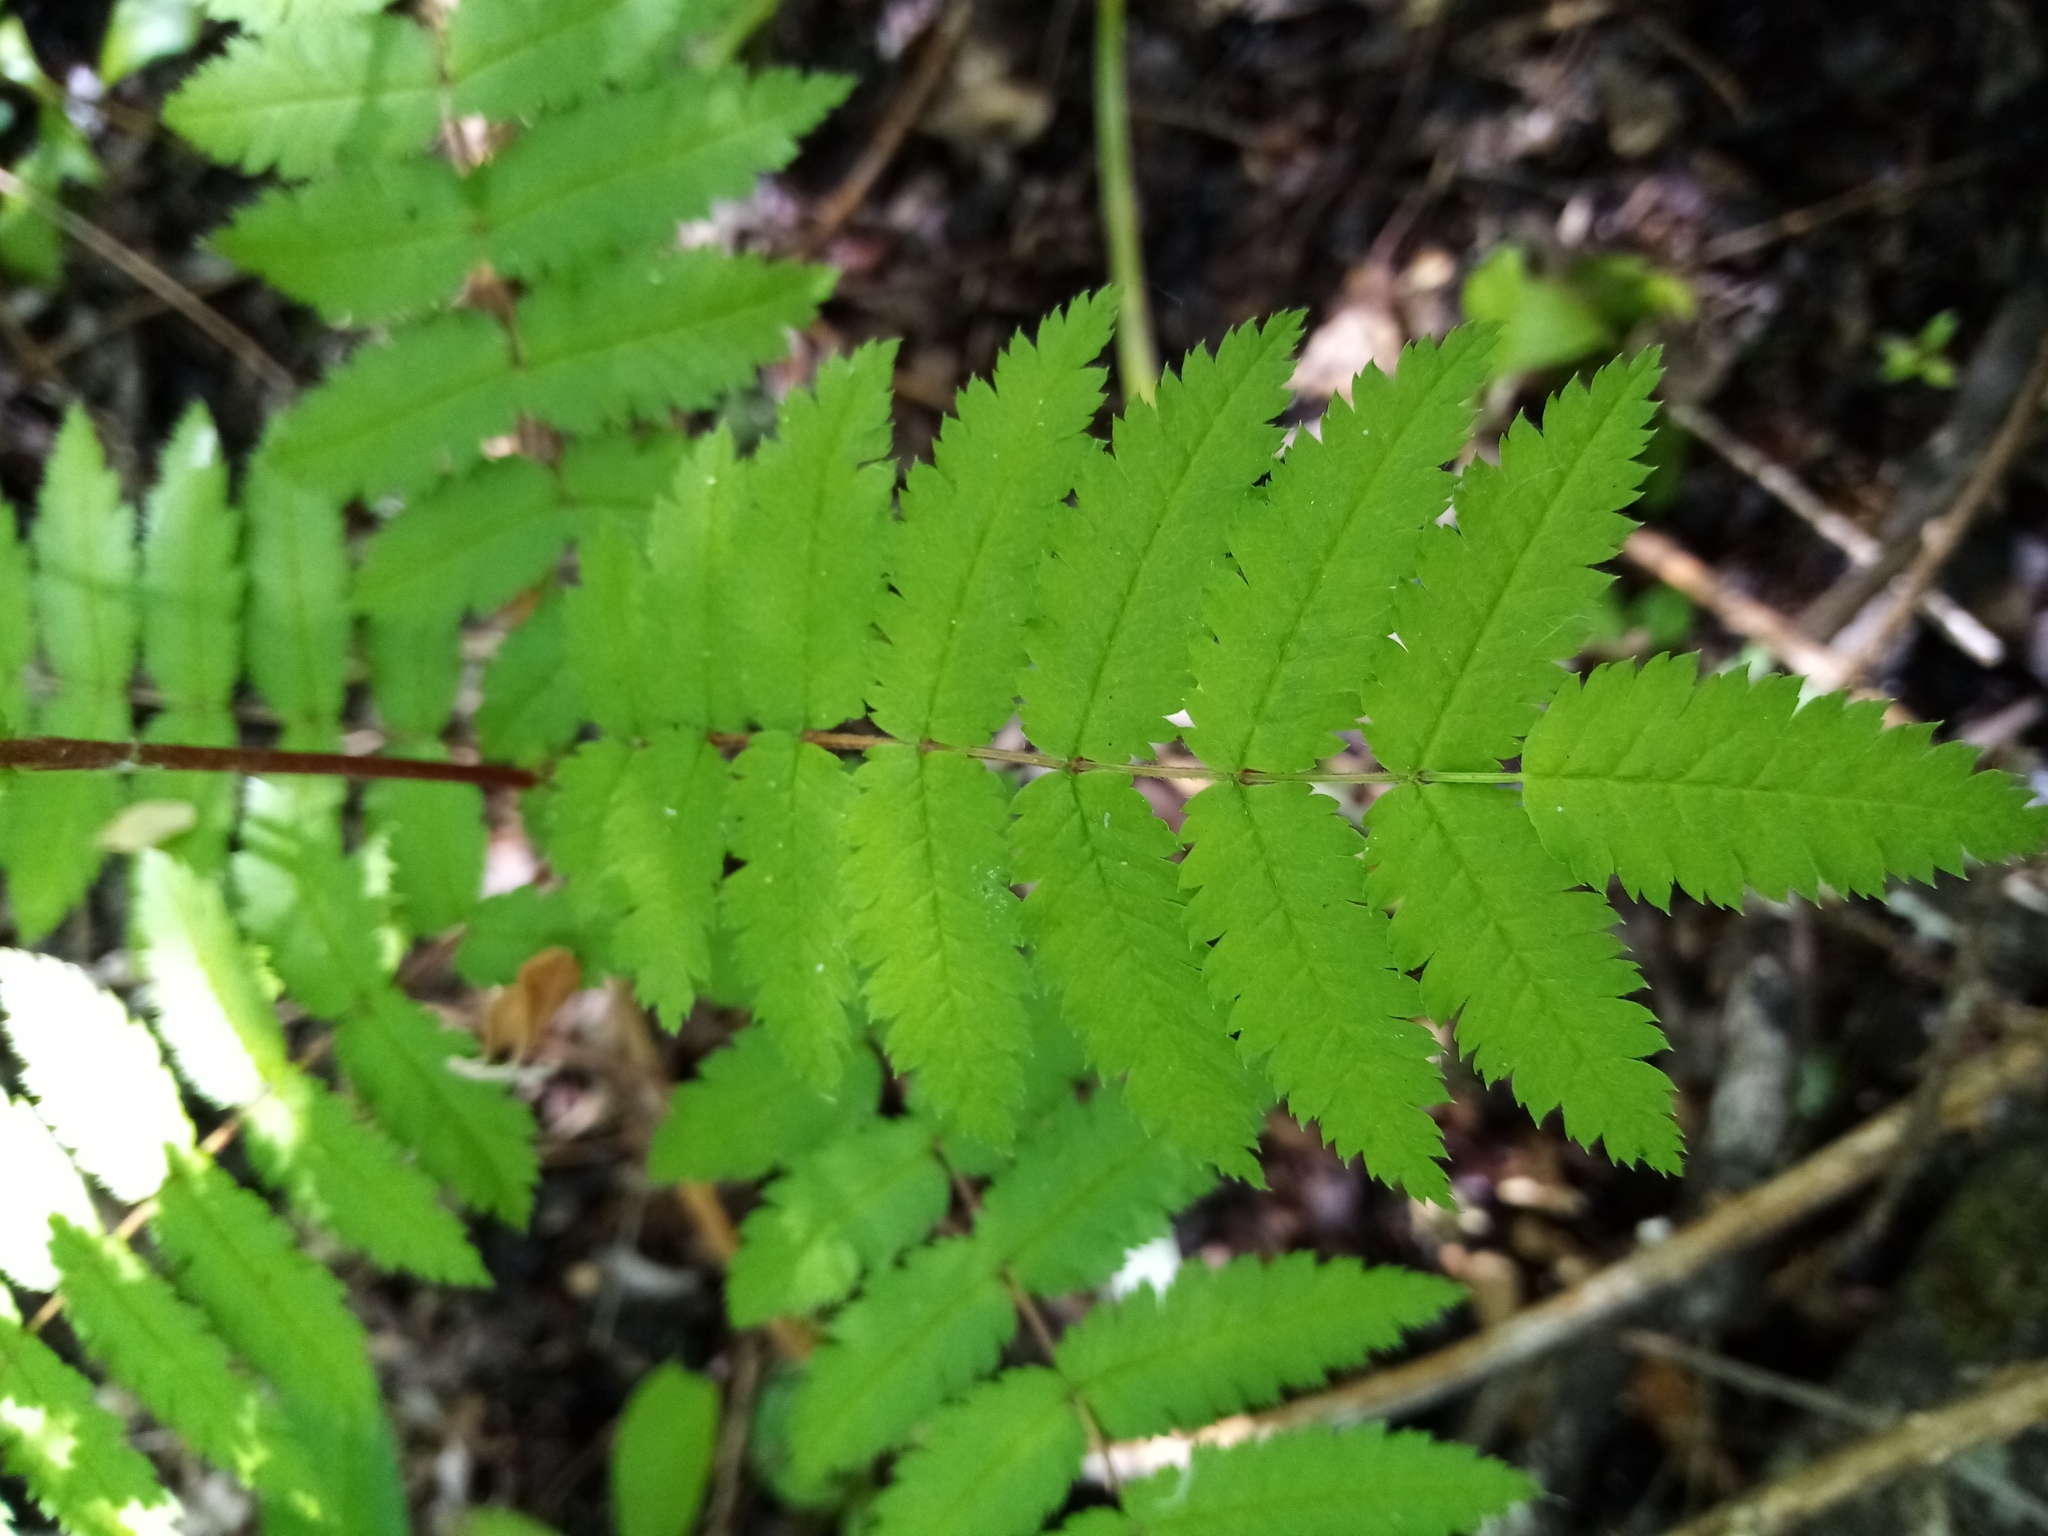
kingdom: Plantae
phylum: Tracheophyta
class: Magnoliopsida
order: Rosales
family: Rosaceae
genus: Sorbus
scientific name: Sorbus aucuparia
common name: Rowan
